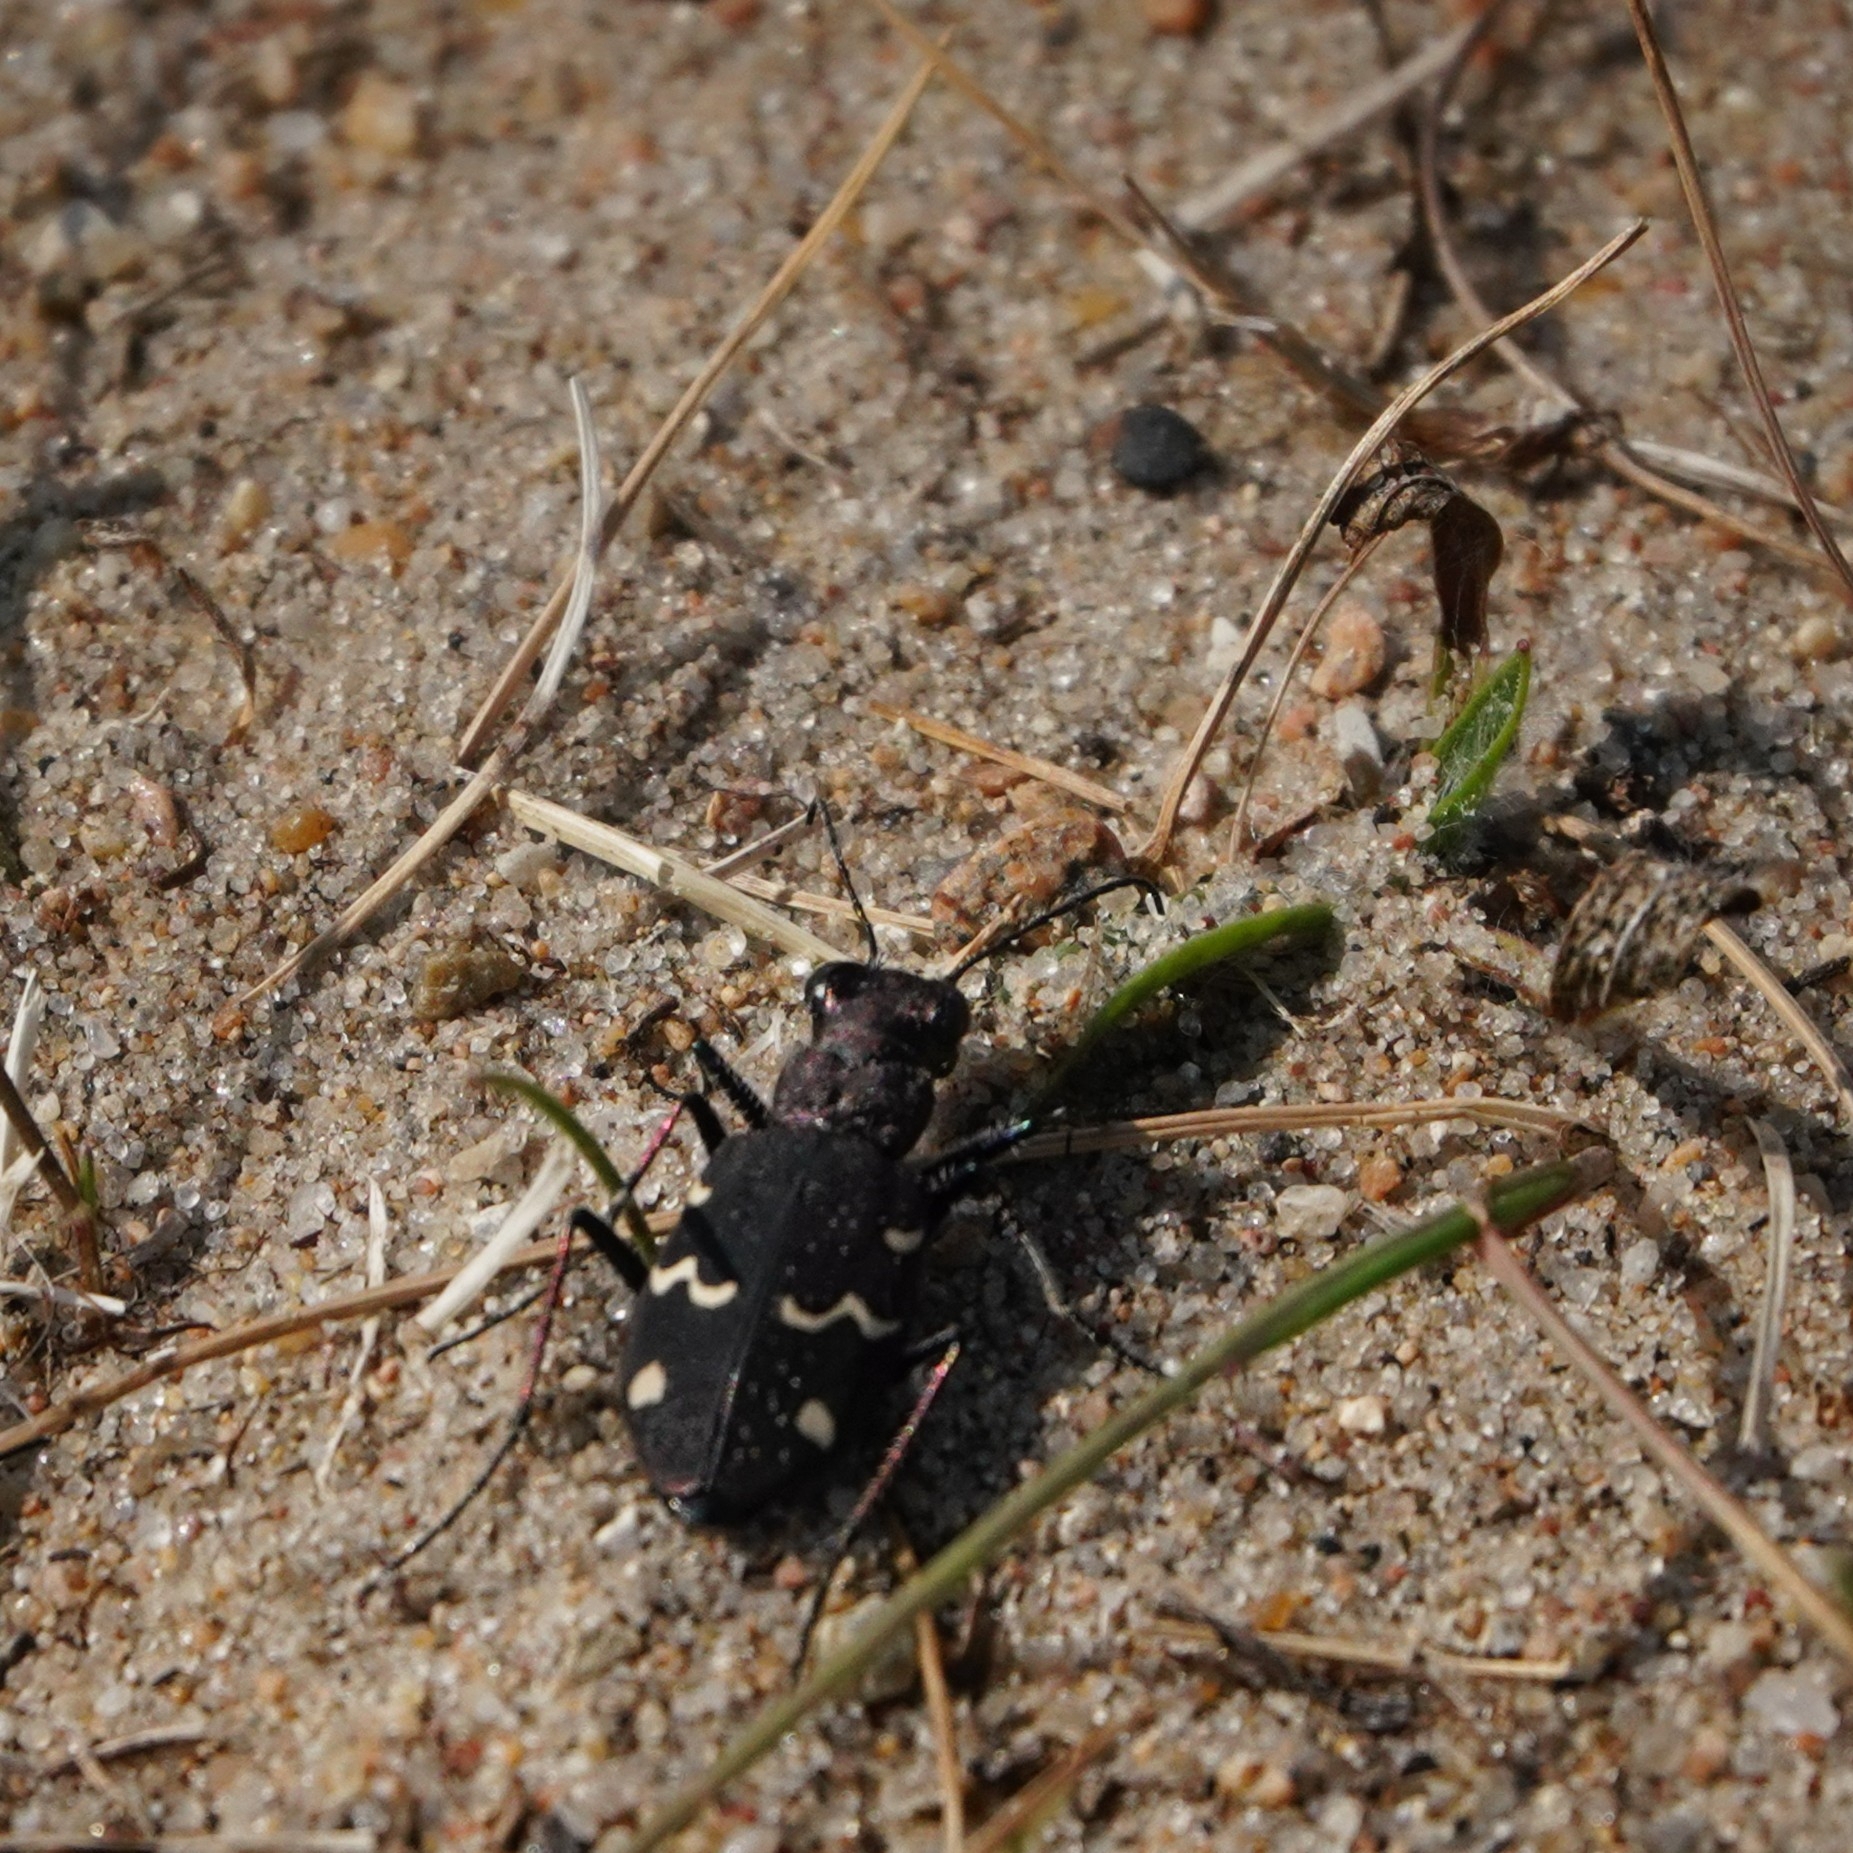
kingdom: Animalia
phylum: Arthropoda
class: Insecta
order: Coleoptera
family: Carabidae
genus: Cicindela
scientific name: Cicindela sylvatica
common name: Heath tiger beetle
